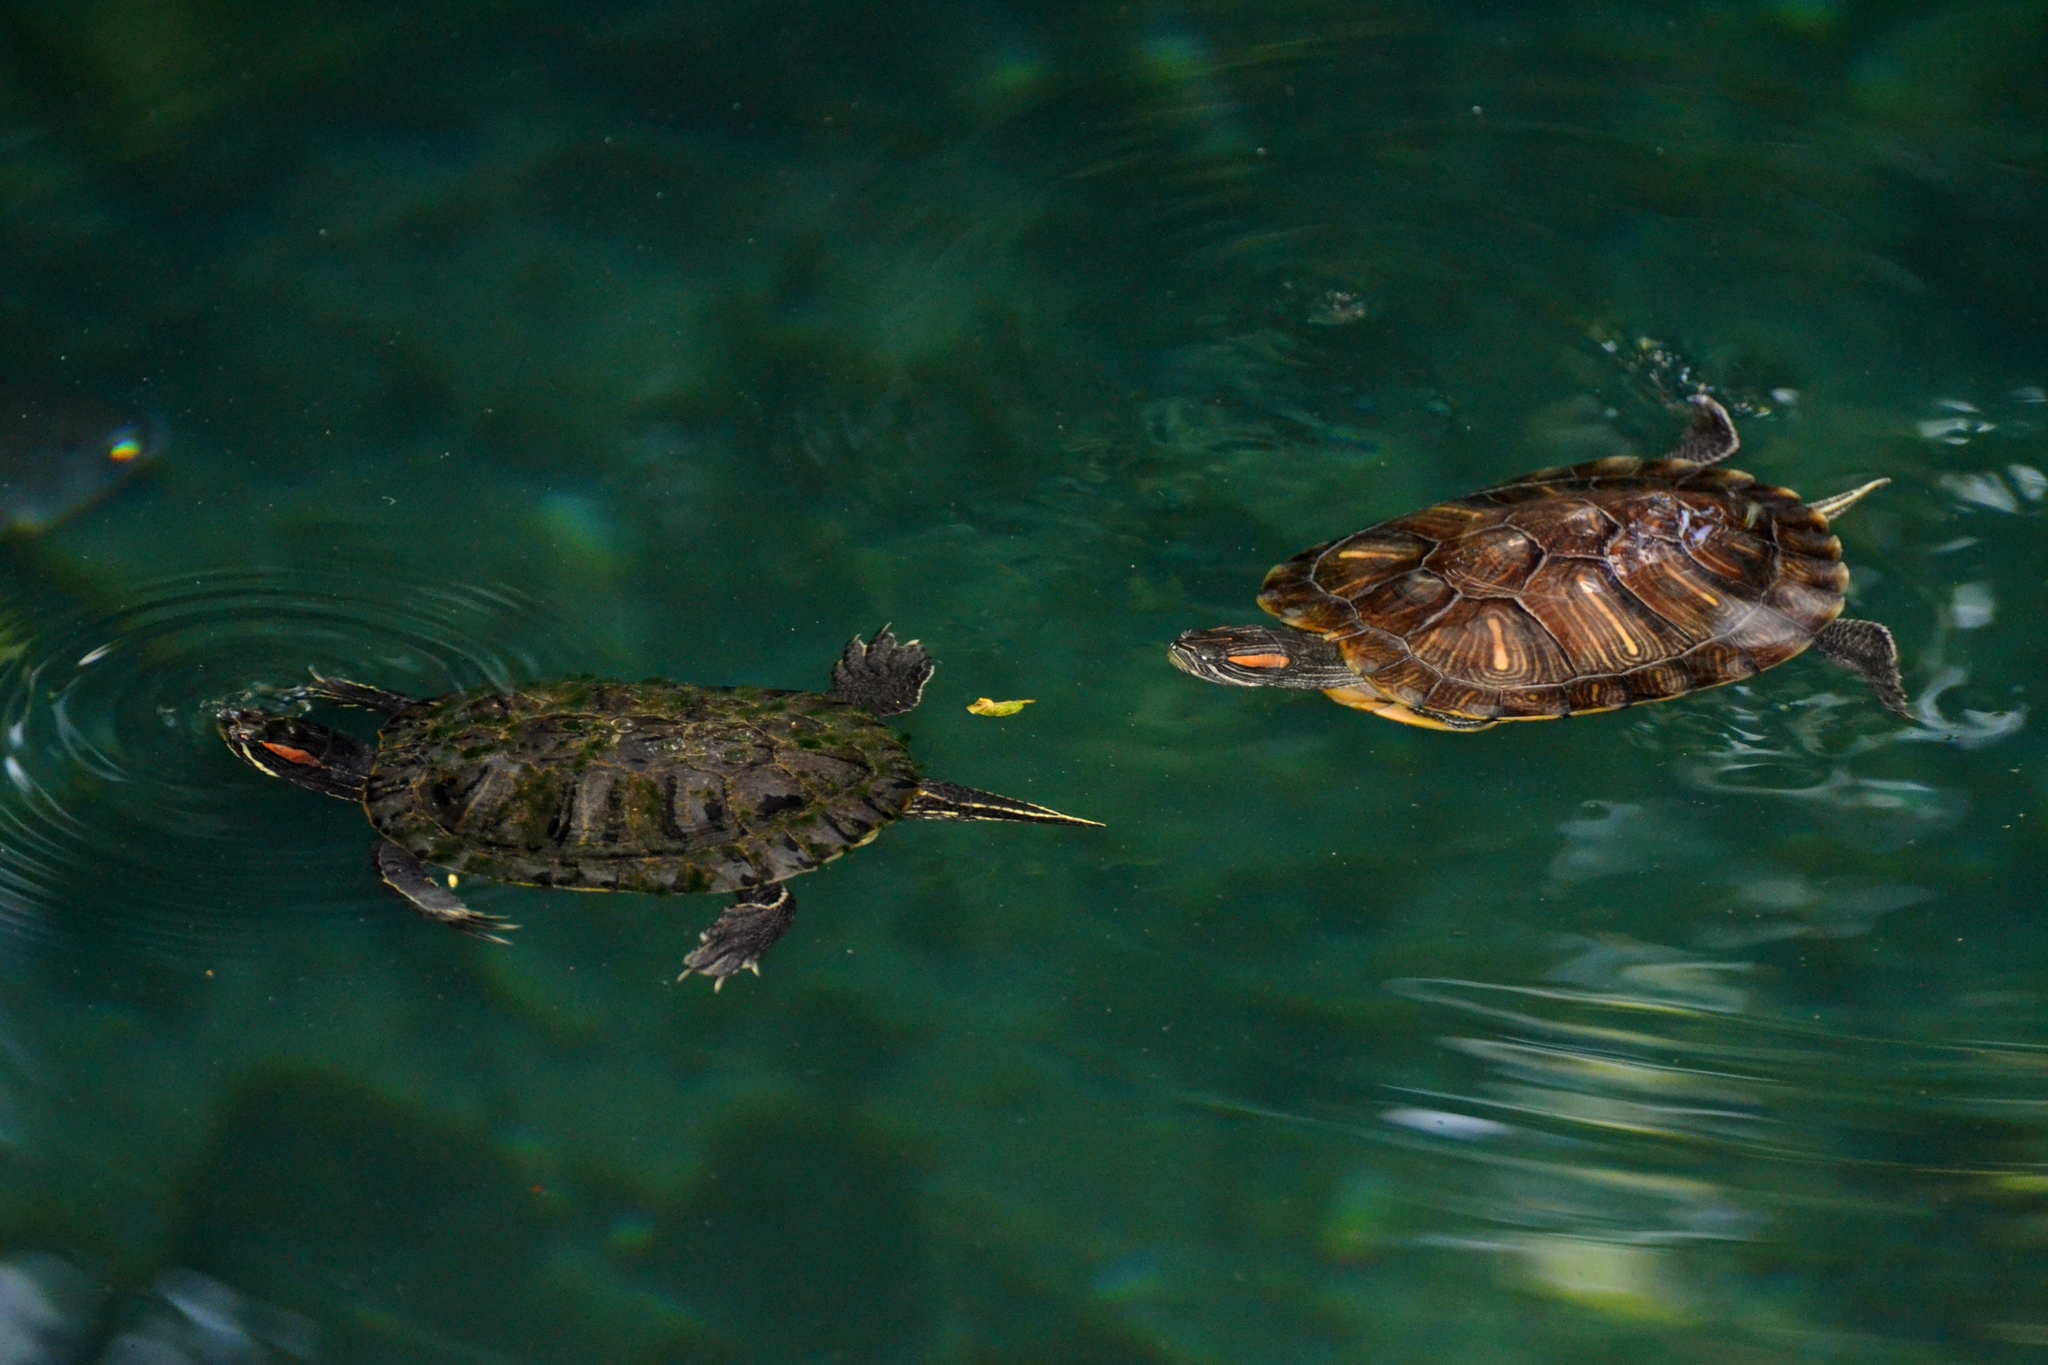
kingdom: Animalia
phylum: Chordata
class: Testudines
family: Emydidae
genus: Trachemys
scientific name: Trachemys scripta
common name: Slider
